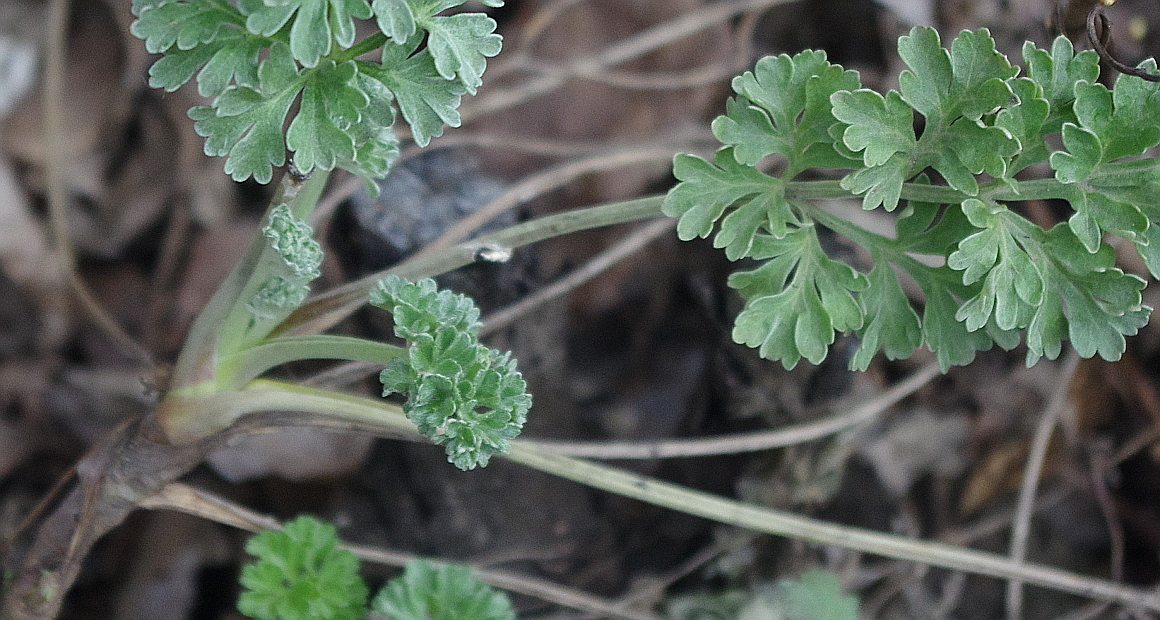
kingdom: Plantae
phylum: Tracheophyta
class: Magnoliopsida
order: Asterales
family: Asteraceae
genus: Artemisia
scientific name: Artemisia absinthium
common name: Wormwood
